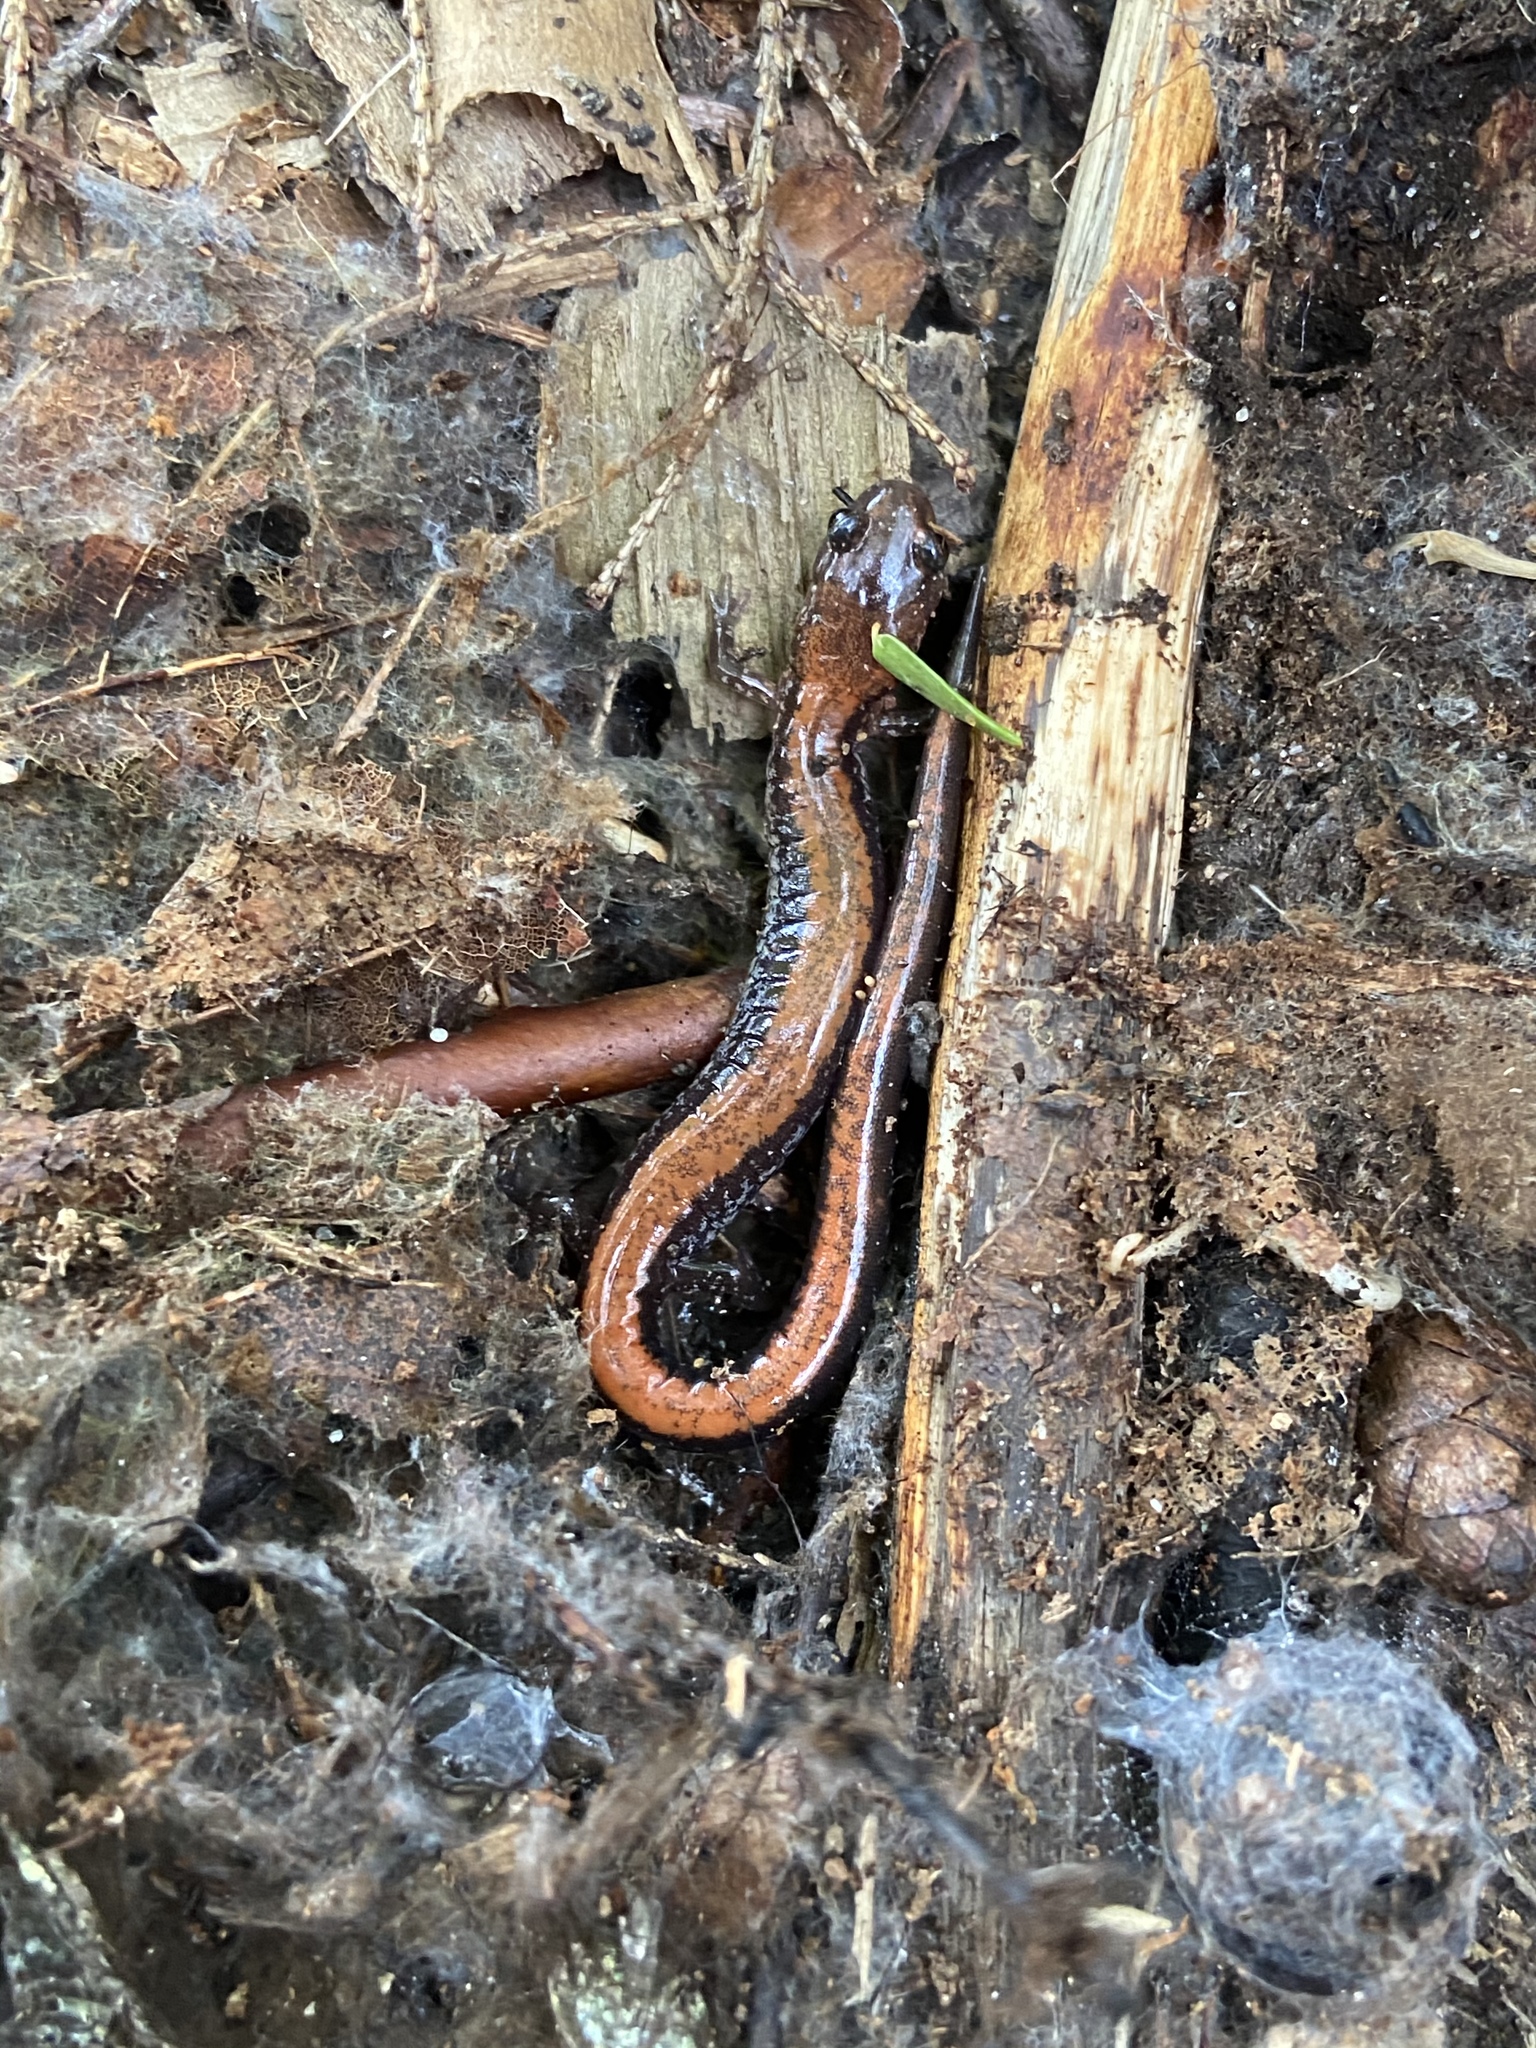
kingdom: Animalia
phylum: Chordata
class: Amphibia
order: Caudata
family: Plethodontidae
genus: Plethodon
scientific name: Plethodon cinereus
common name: Redback salamander
